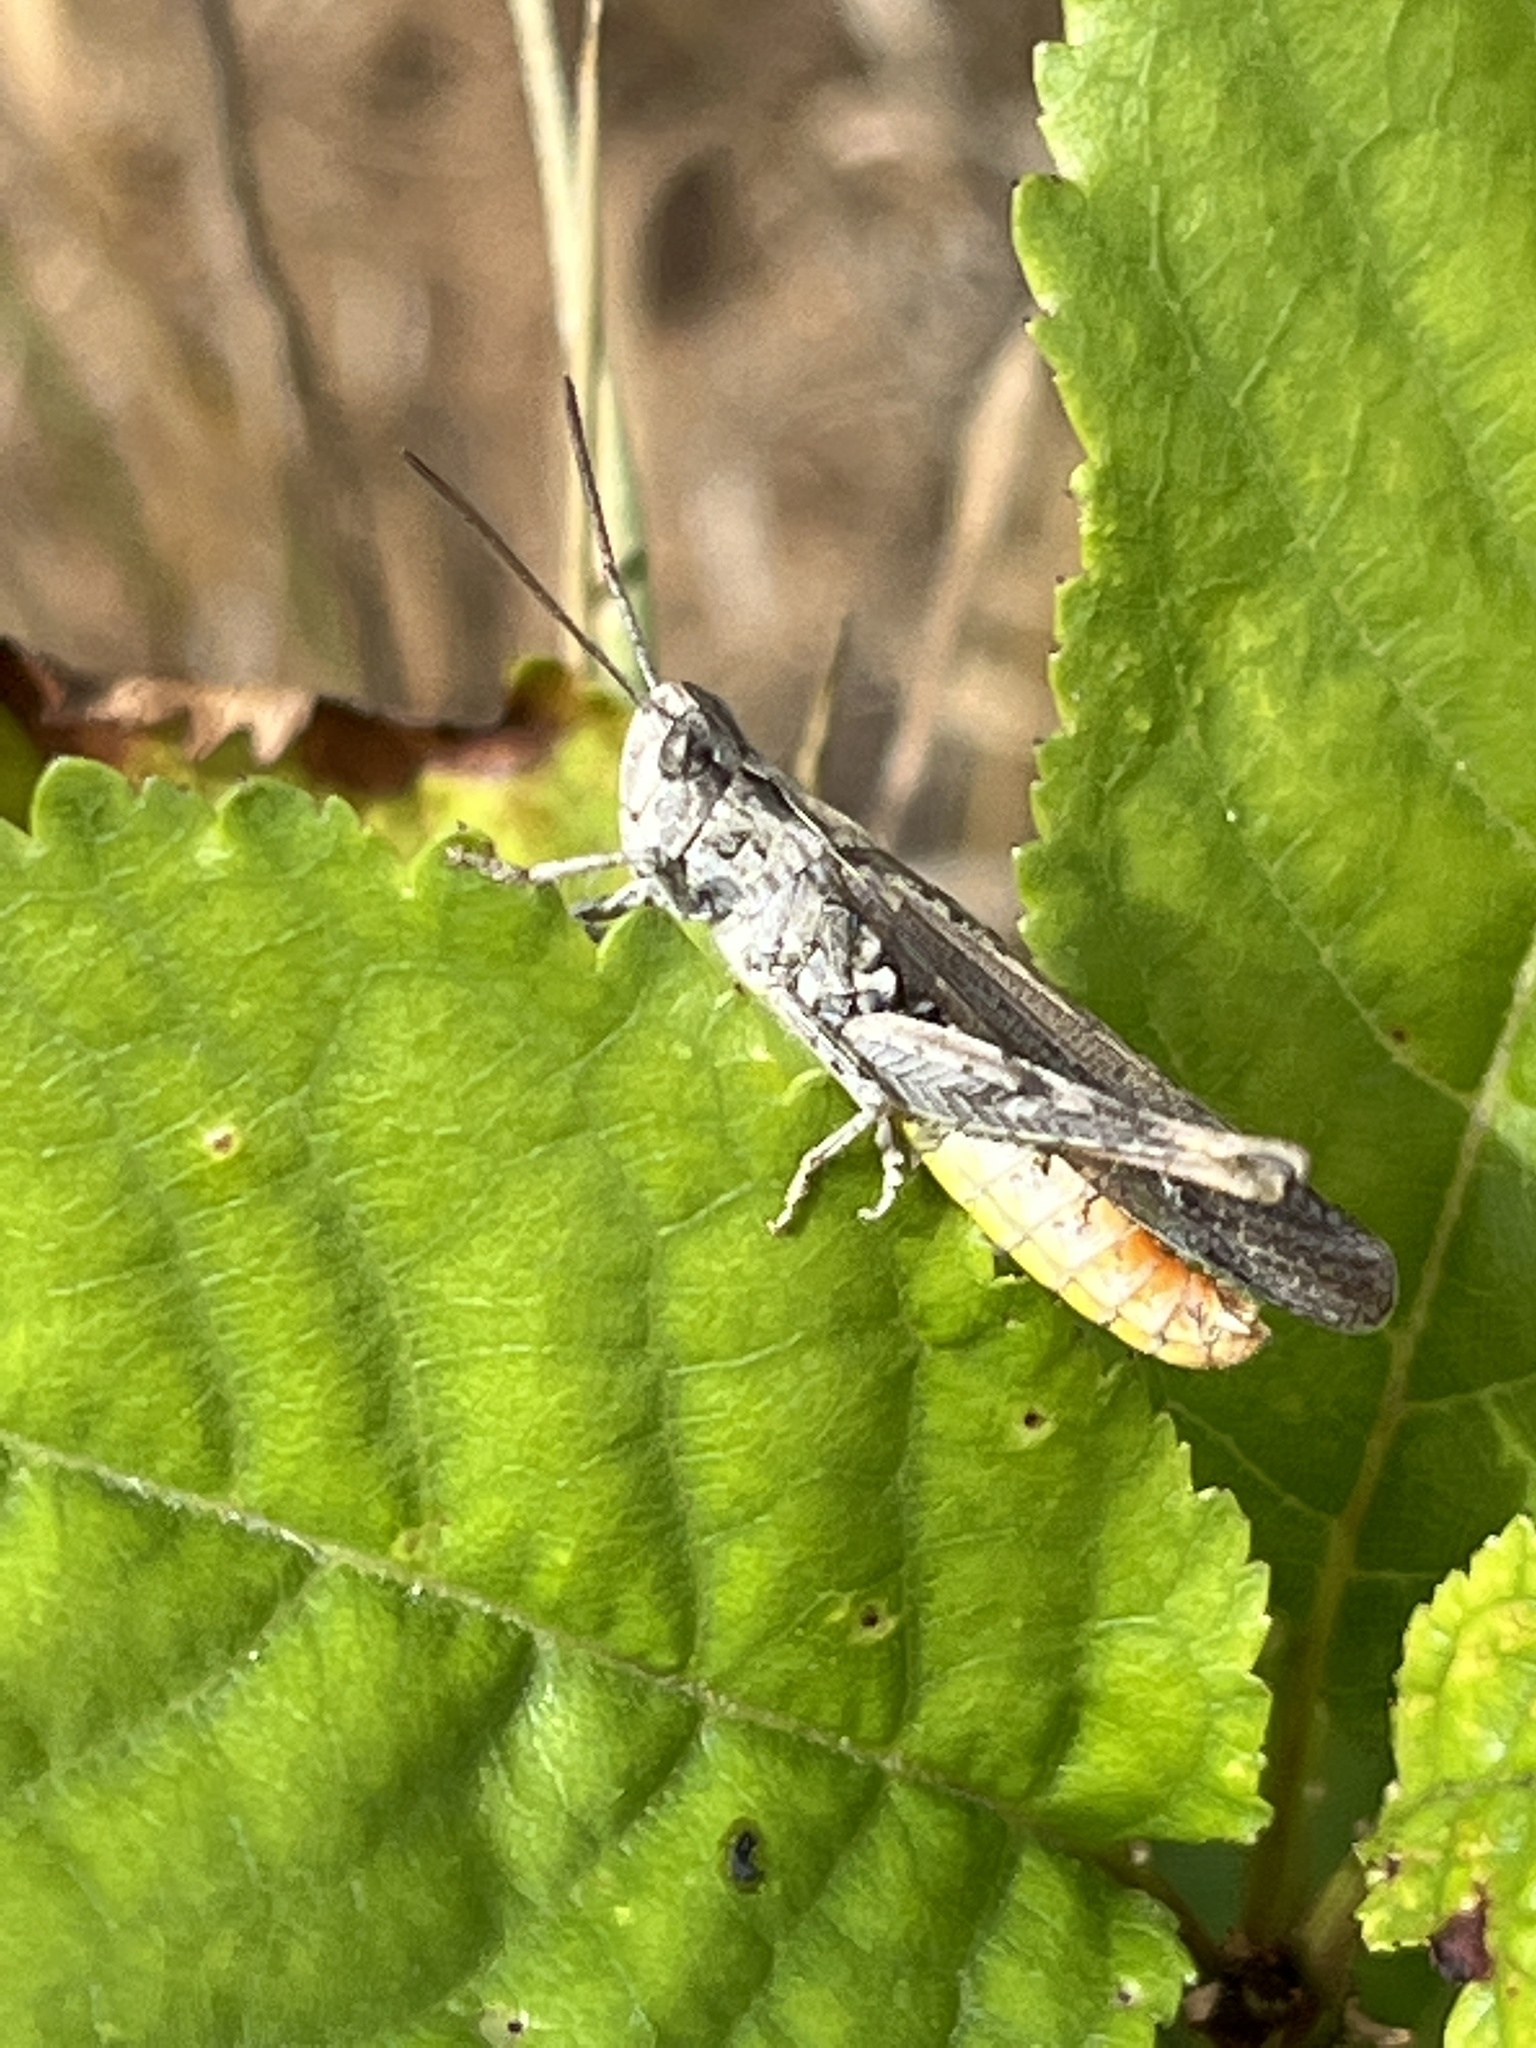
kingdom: Animalia
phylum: Arthropoda
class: Insecta
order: Orthoptera
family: Acrididae
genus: Chorthippus
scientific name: Chorthippus brunneus
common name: Field grasshopper
